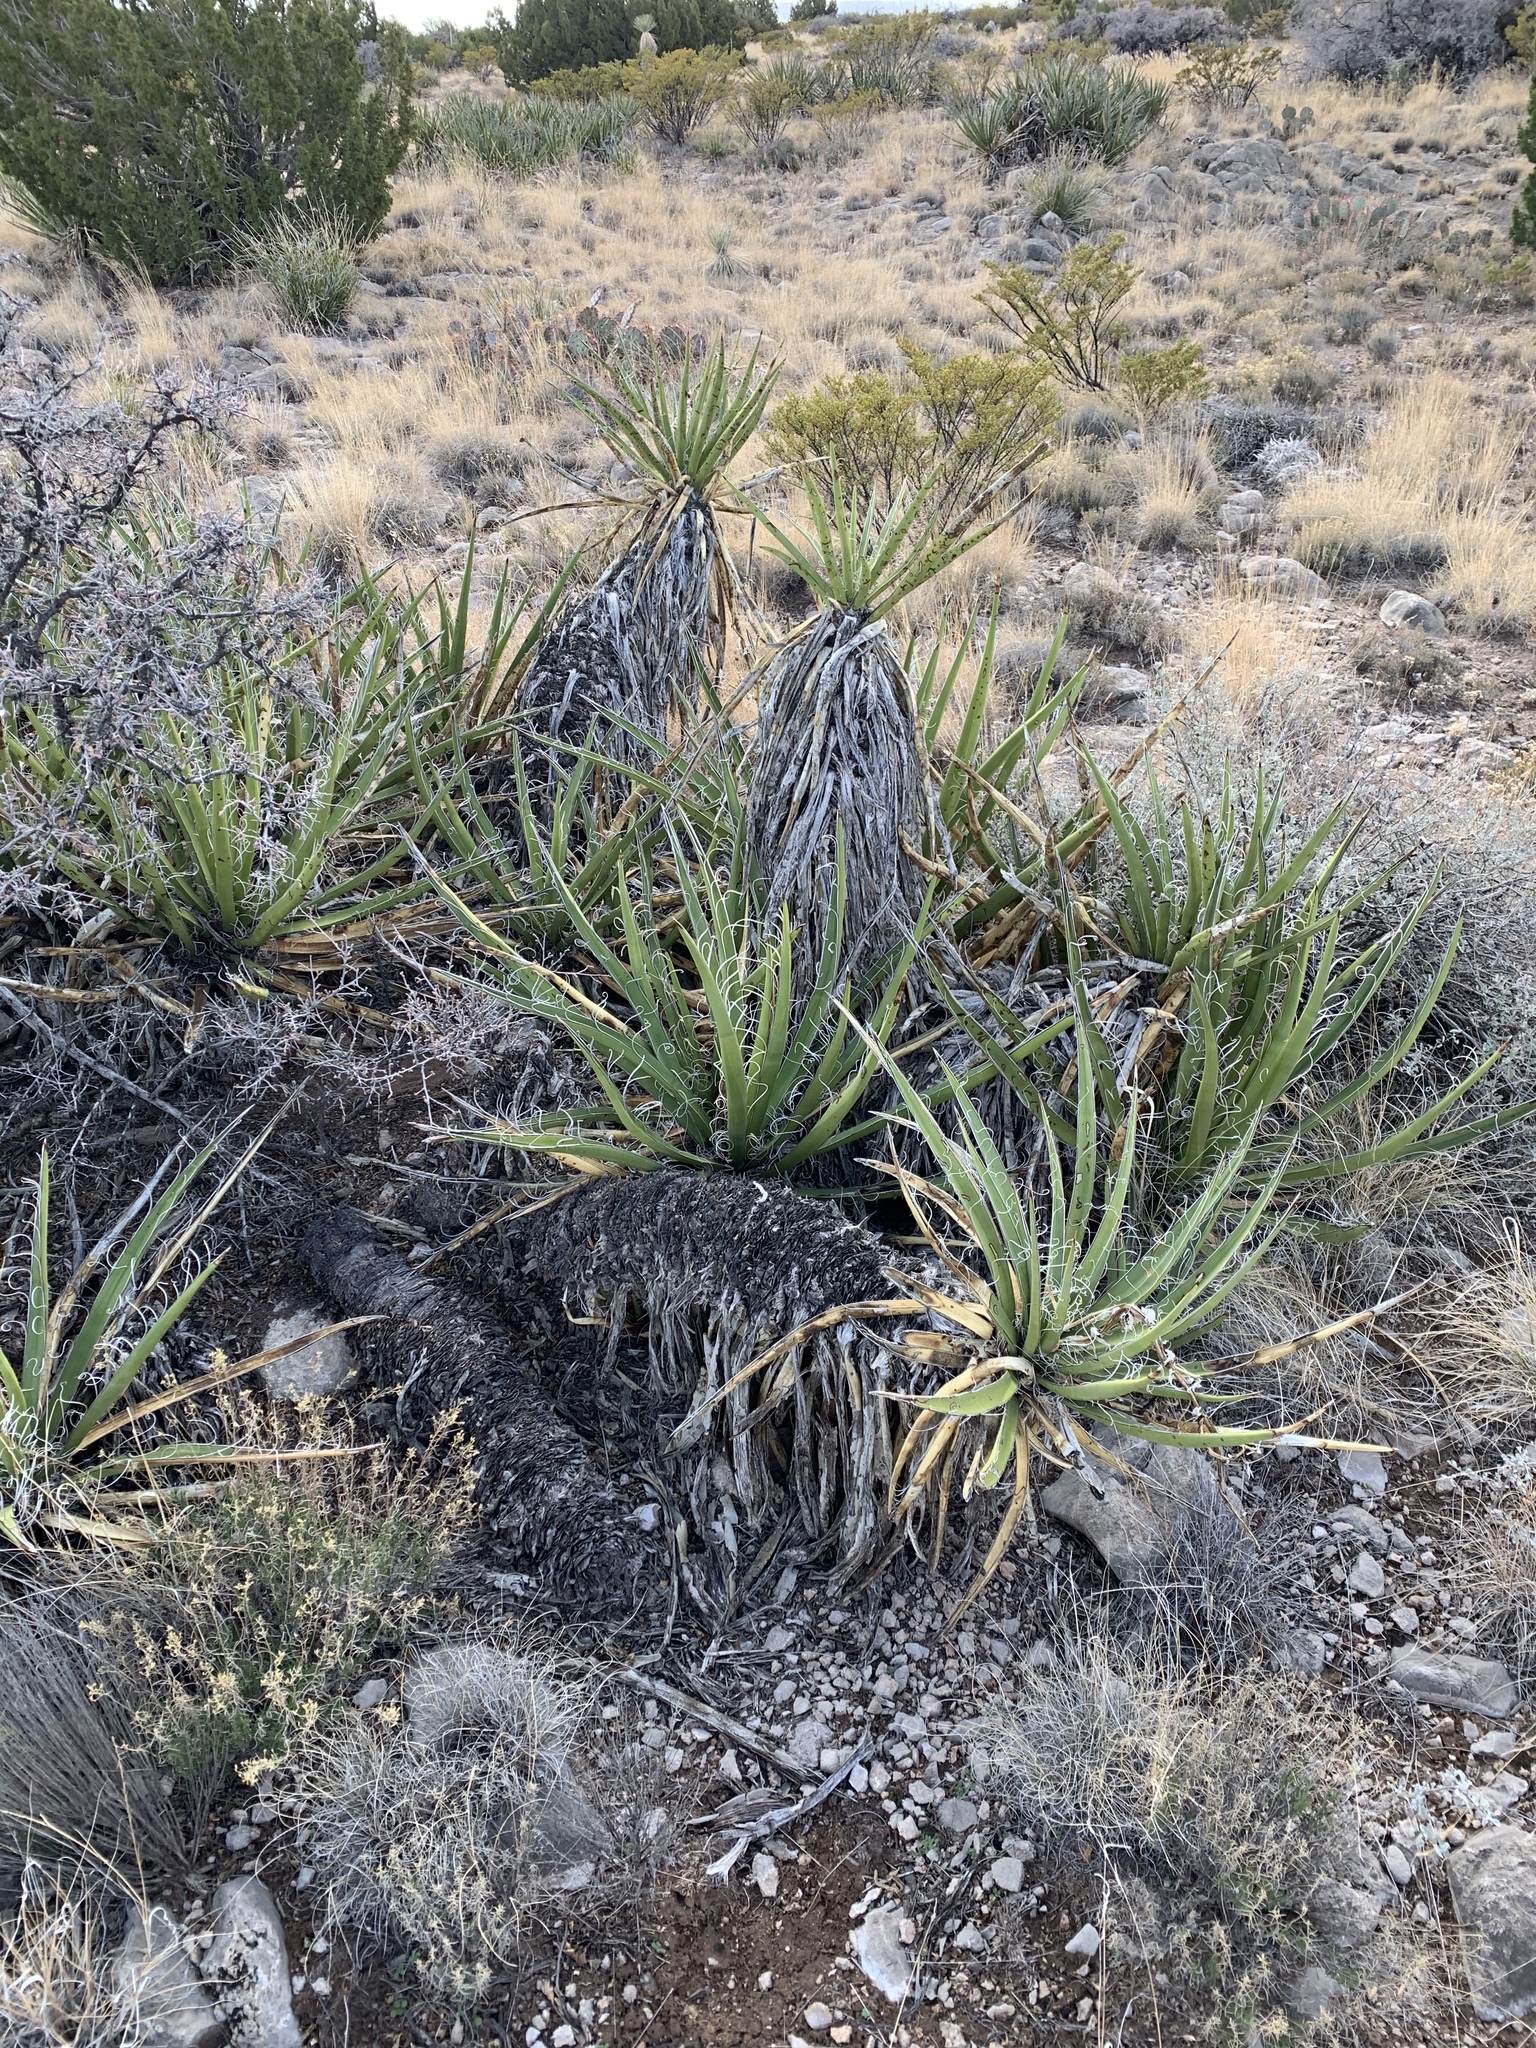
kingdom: Plantae
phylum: Tracheophyta
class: Liliopsida
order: Asparagales
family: Asparagaceae
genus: Yucca
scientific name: Yucca baccata
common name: Banana yucca
